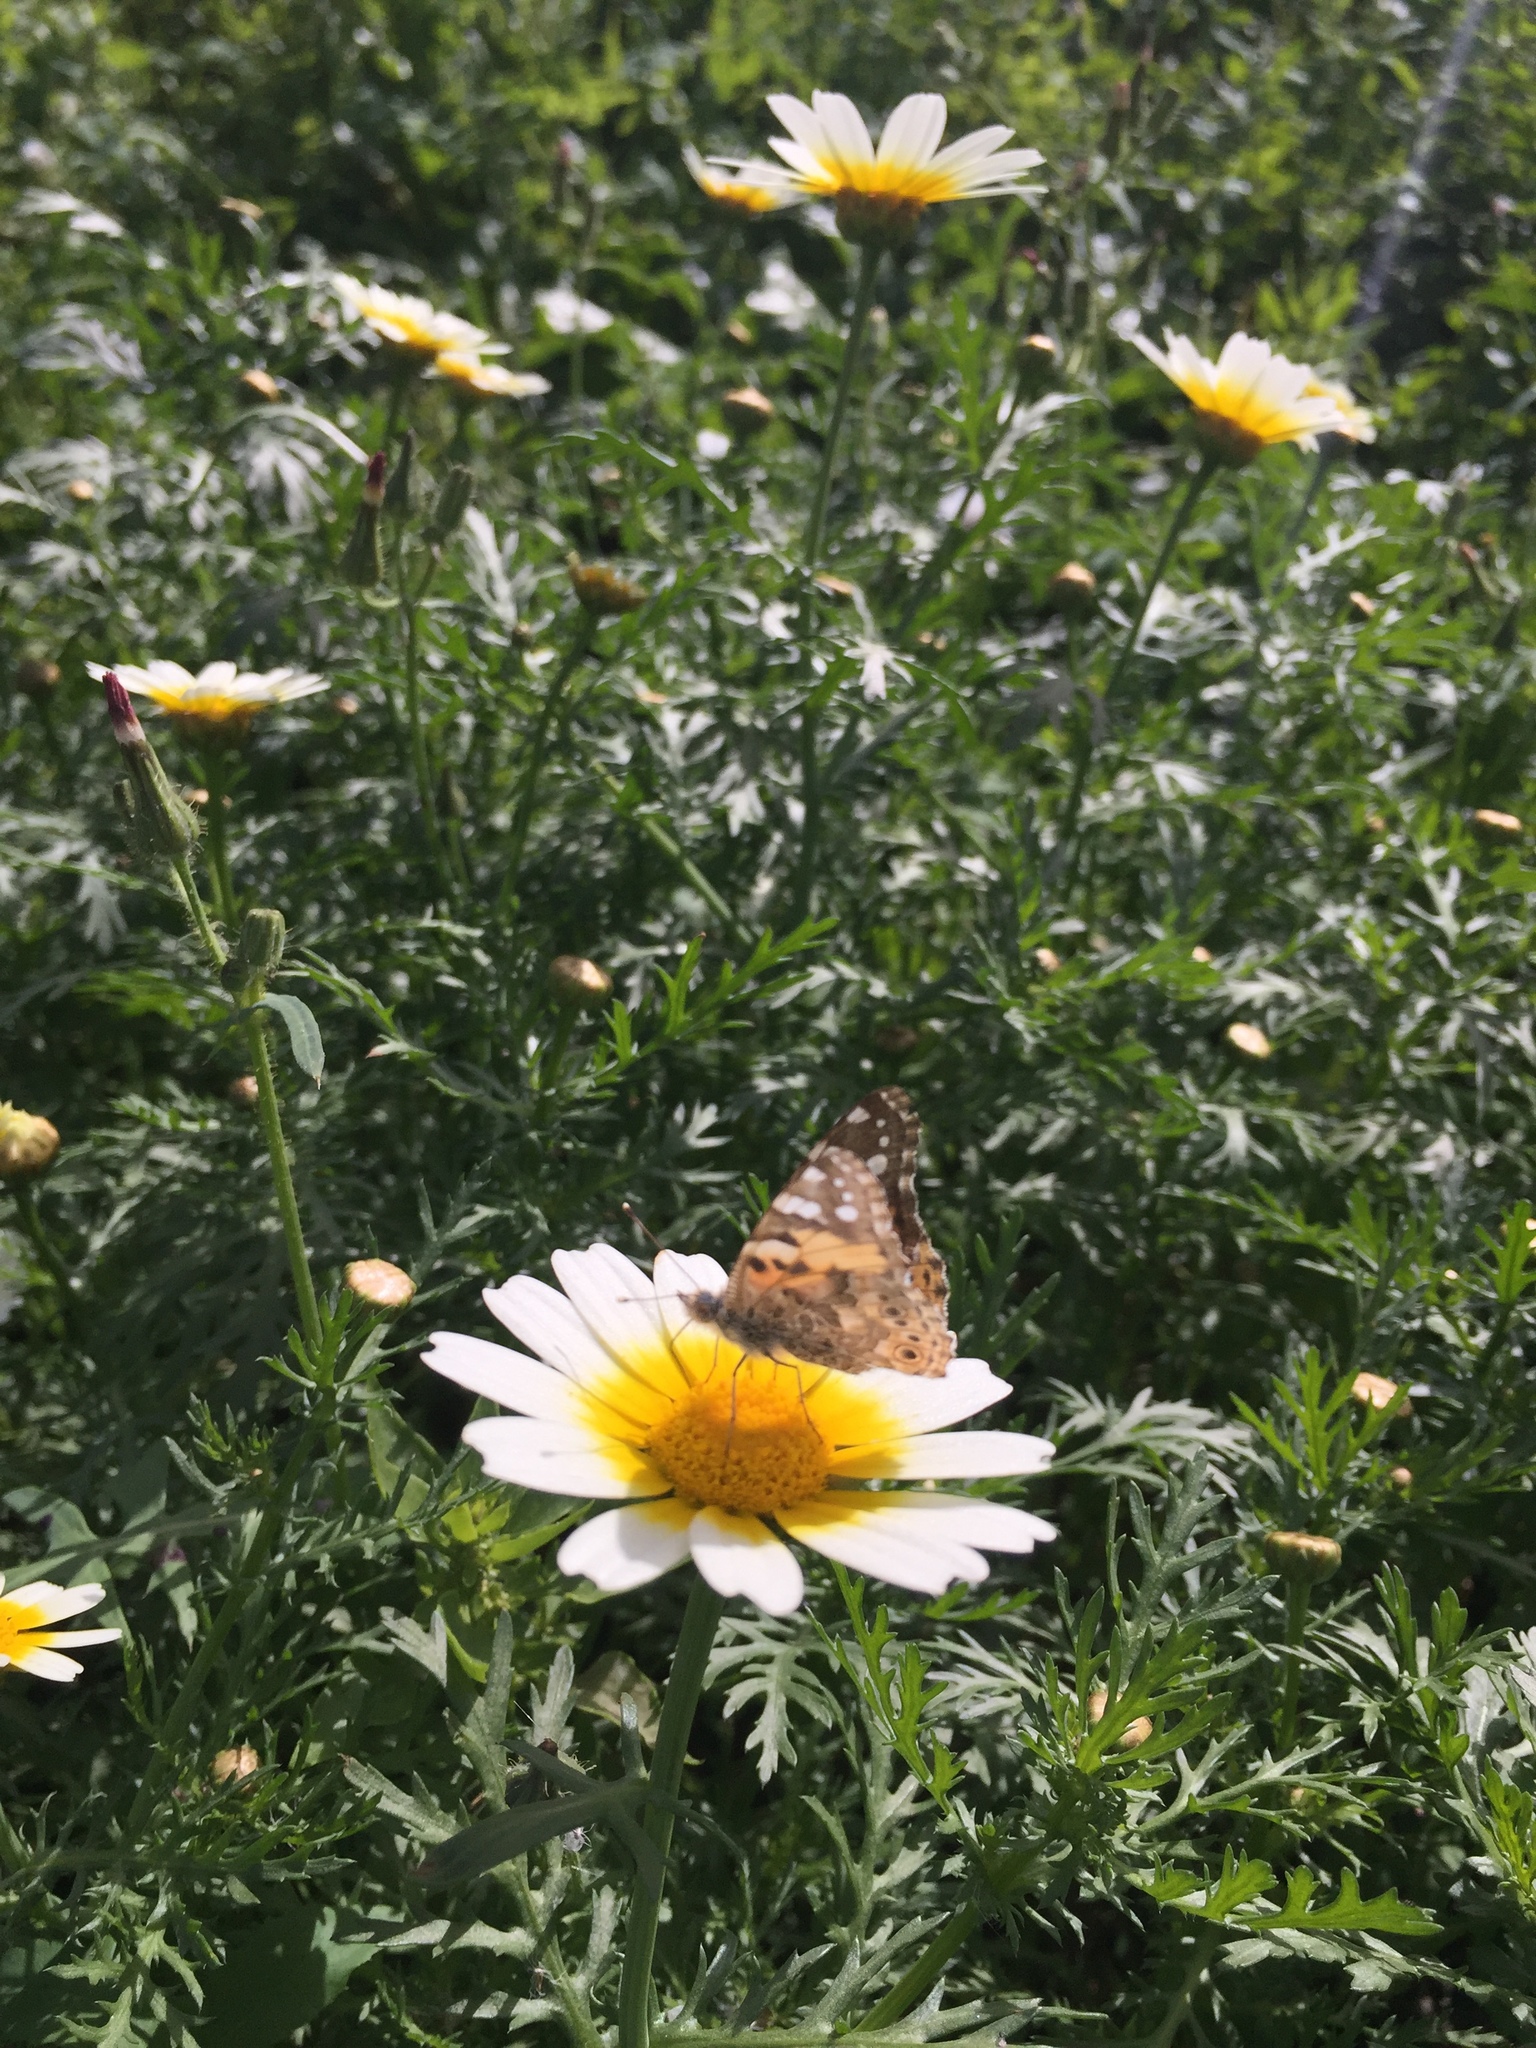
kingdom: Animalia
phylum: Arthropoda
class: Insecta
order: Lepidoptera
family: Nymphalidae
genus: Vanessa
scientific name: Vanessa cardui
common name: Painted lady
